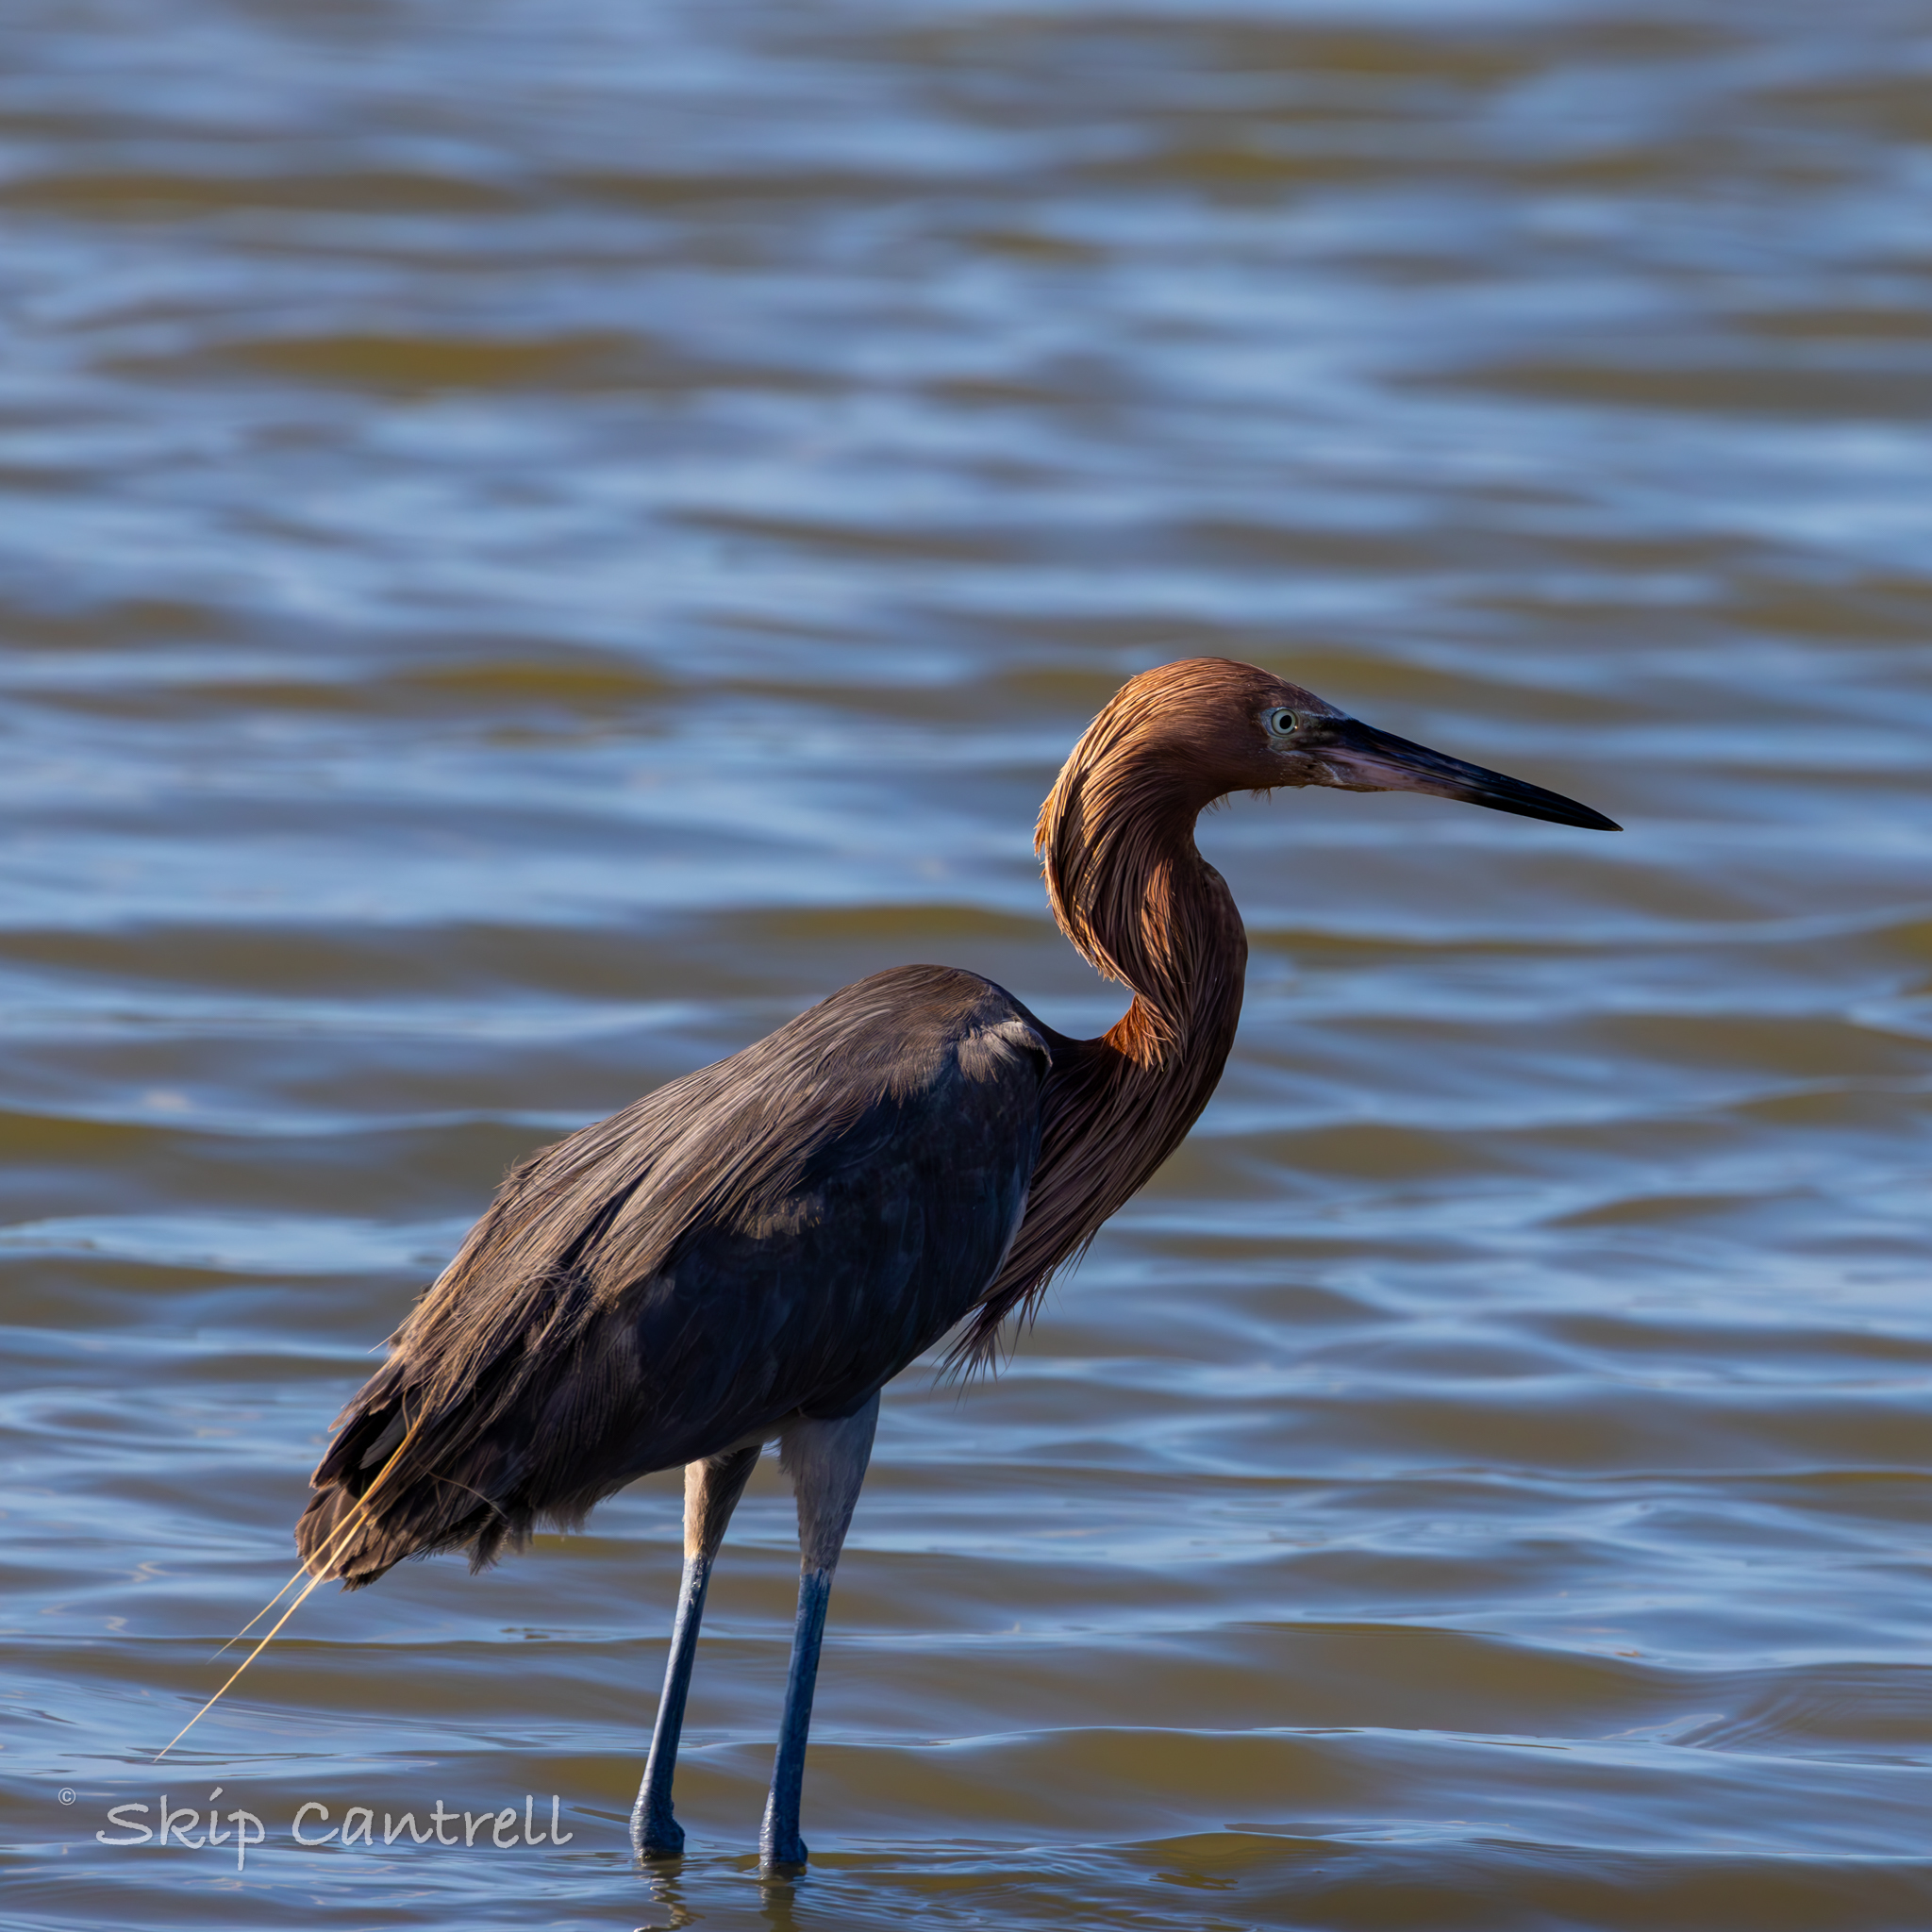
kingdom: Animalia
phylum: Chordata
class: Aves
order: Pelecaniformes
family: Ardeidae
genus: Egretta
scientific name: Egretta rufescens
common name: Reddish egret
